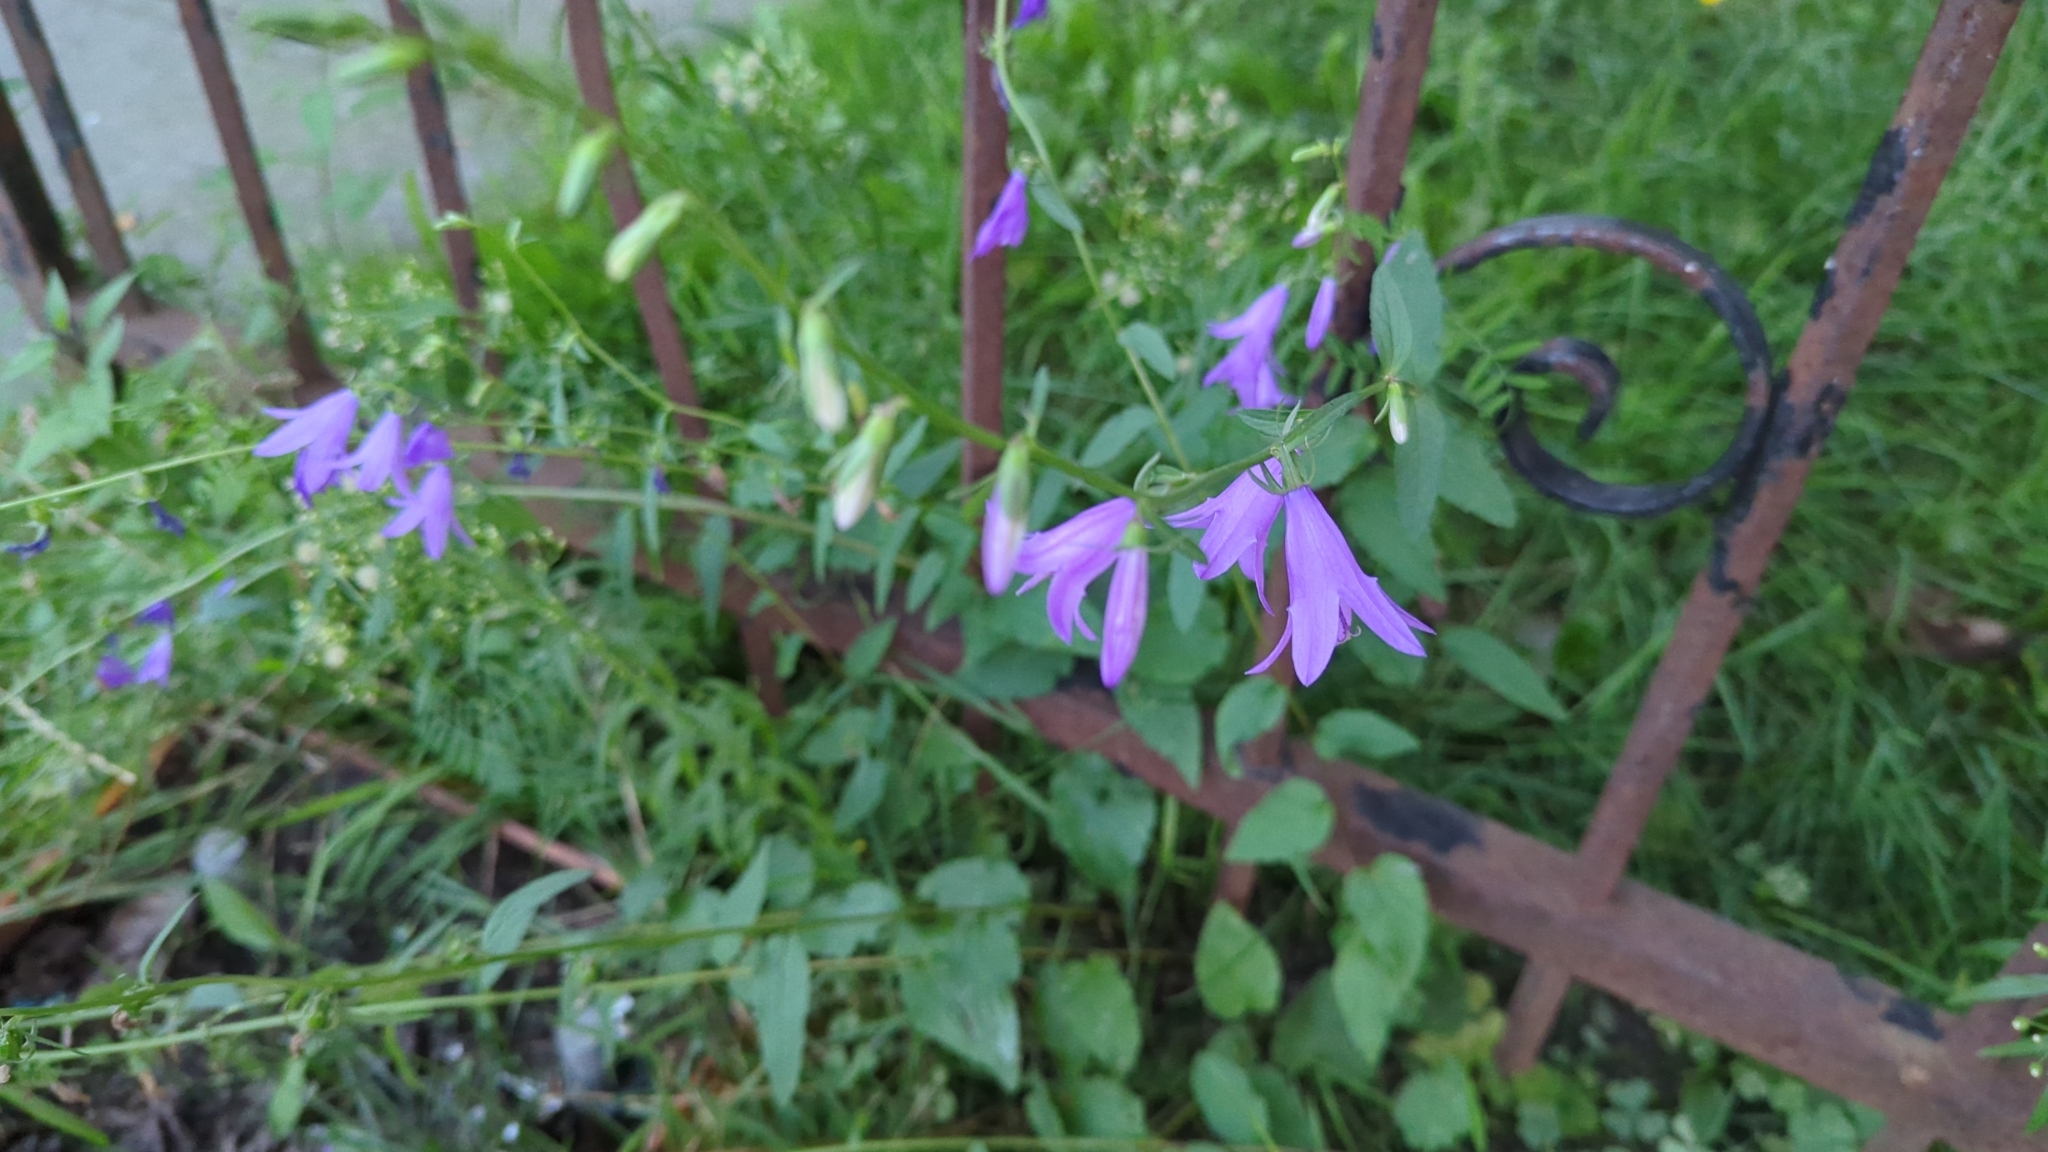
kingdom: Plantae
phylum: Tracheophyta
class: Magnoliopsida
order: Asterales
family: Campanulaceae
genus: Campanula
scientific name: Campanula rapunculoides
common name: Creeping bellflower
